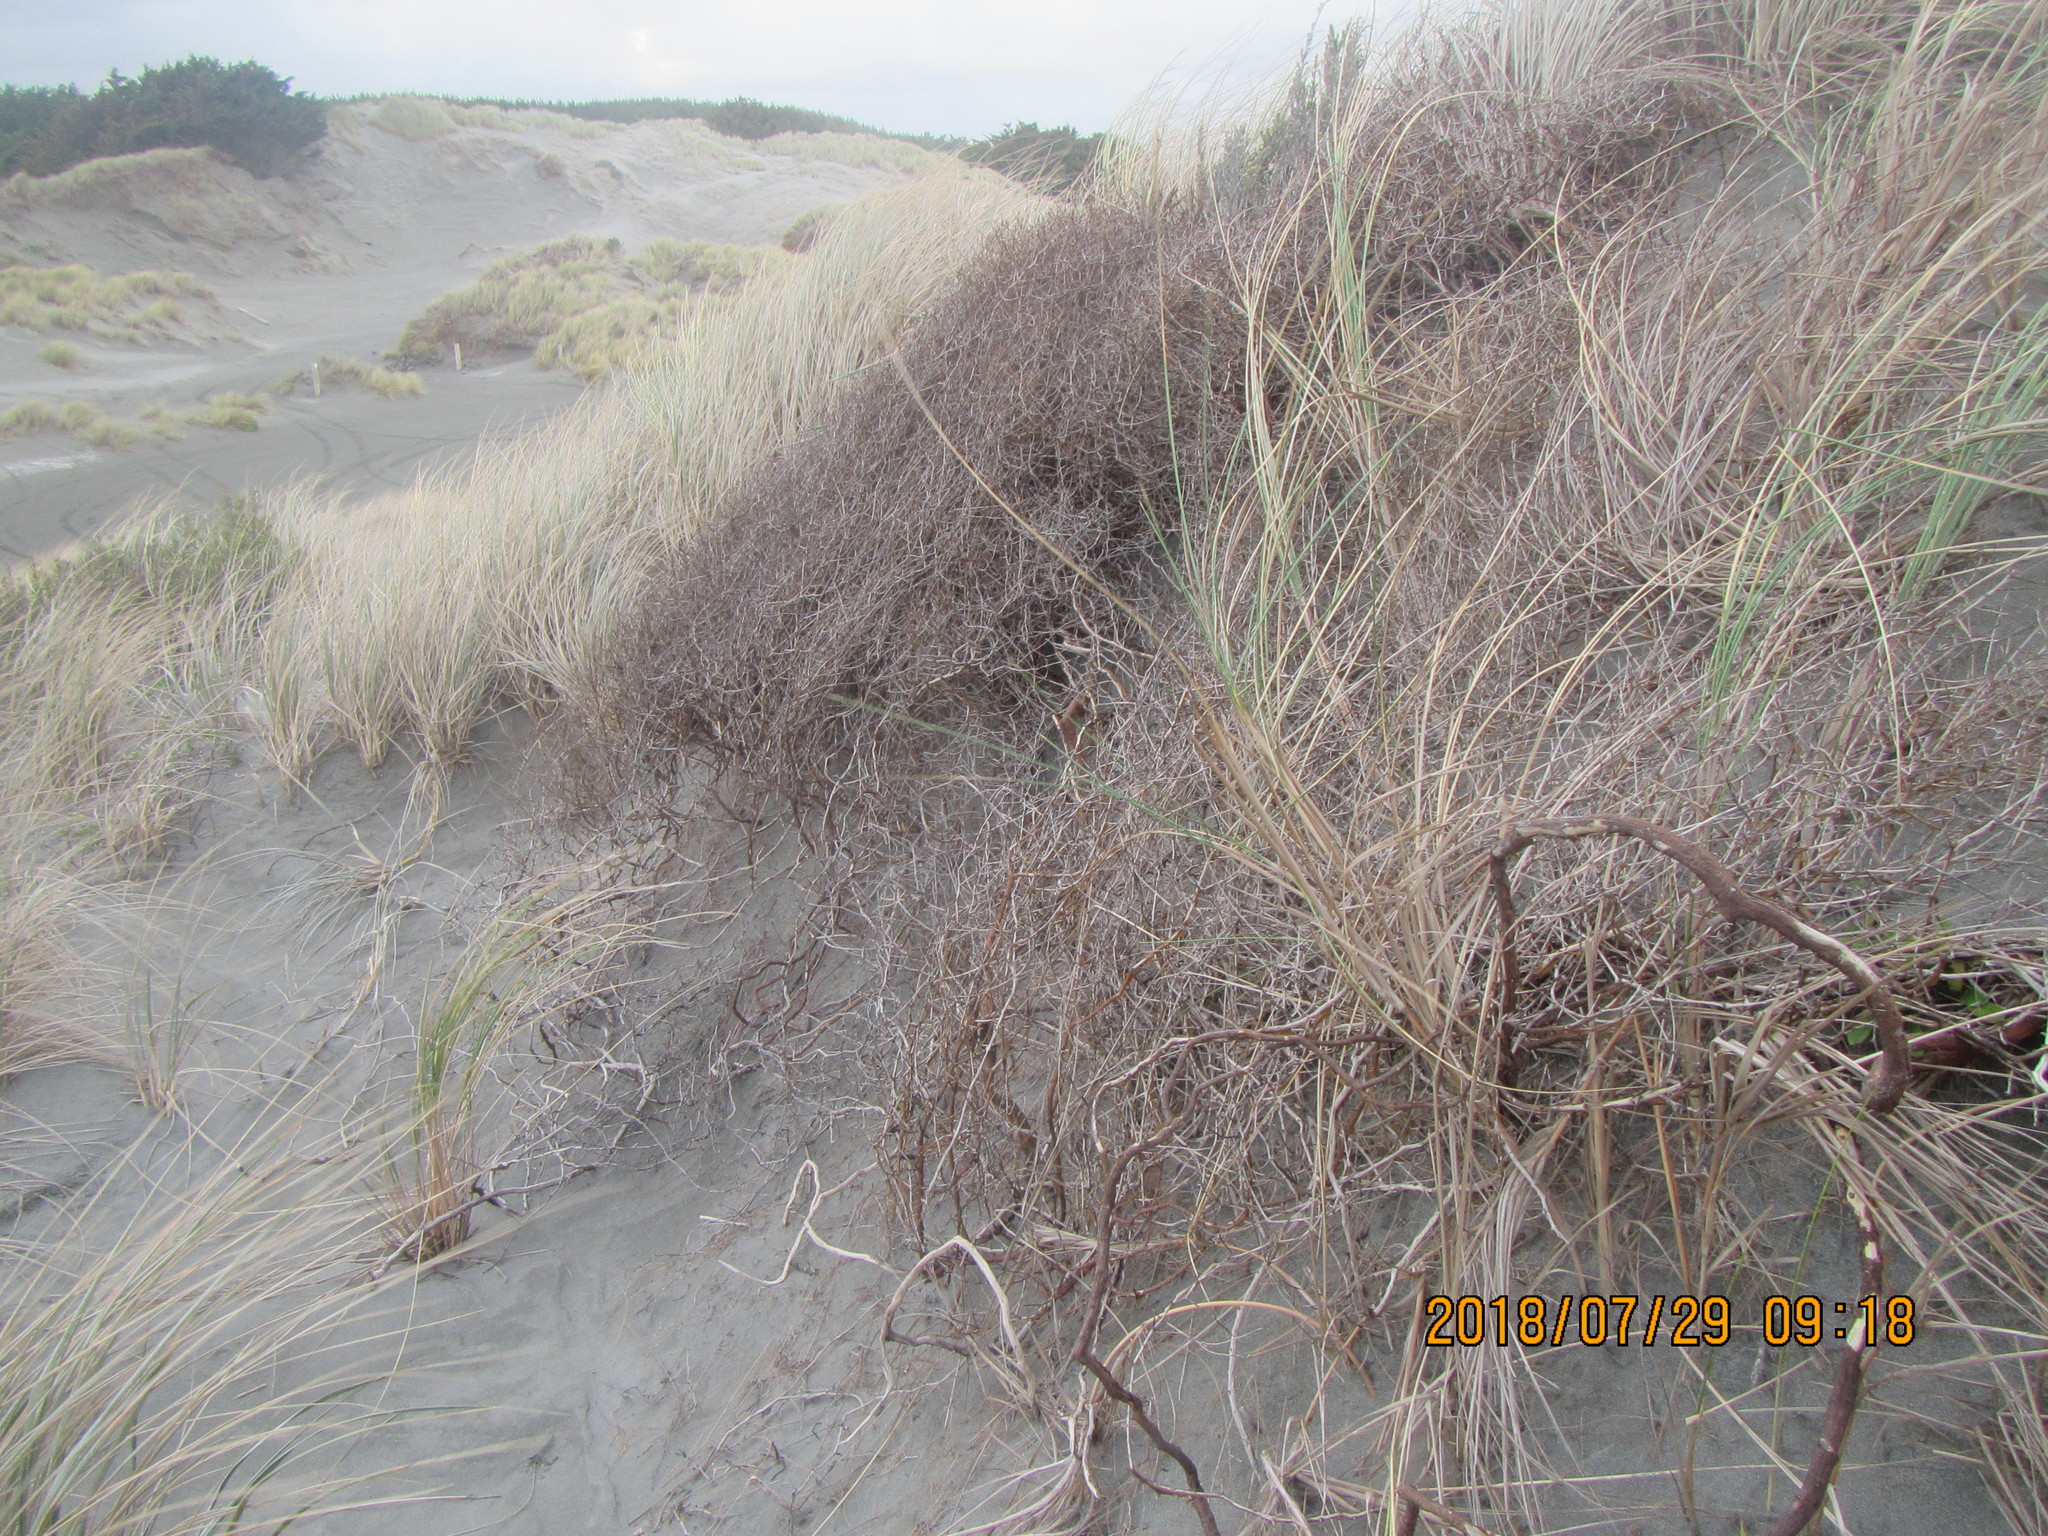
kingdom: Plantae
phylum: Tracheophyta
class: Magnoliopsida
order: Gentianales
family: Rubiaceae
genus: Coprosma
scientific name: Coprosma acerosa
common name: Sand coprosma
